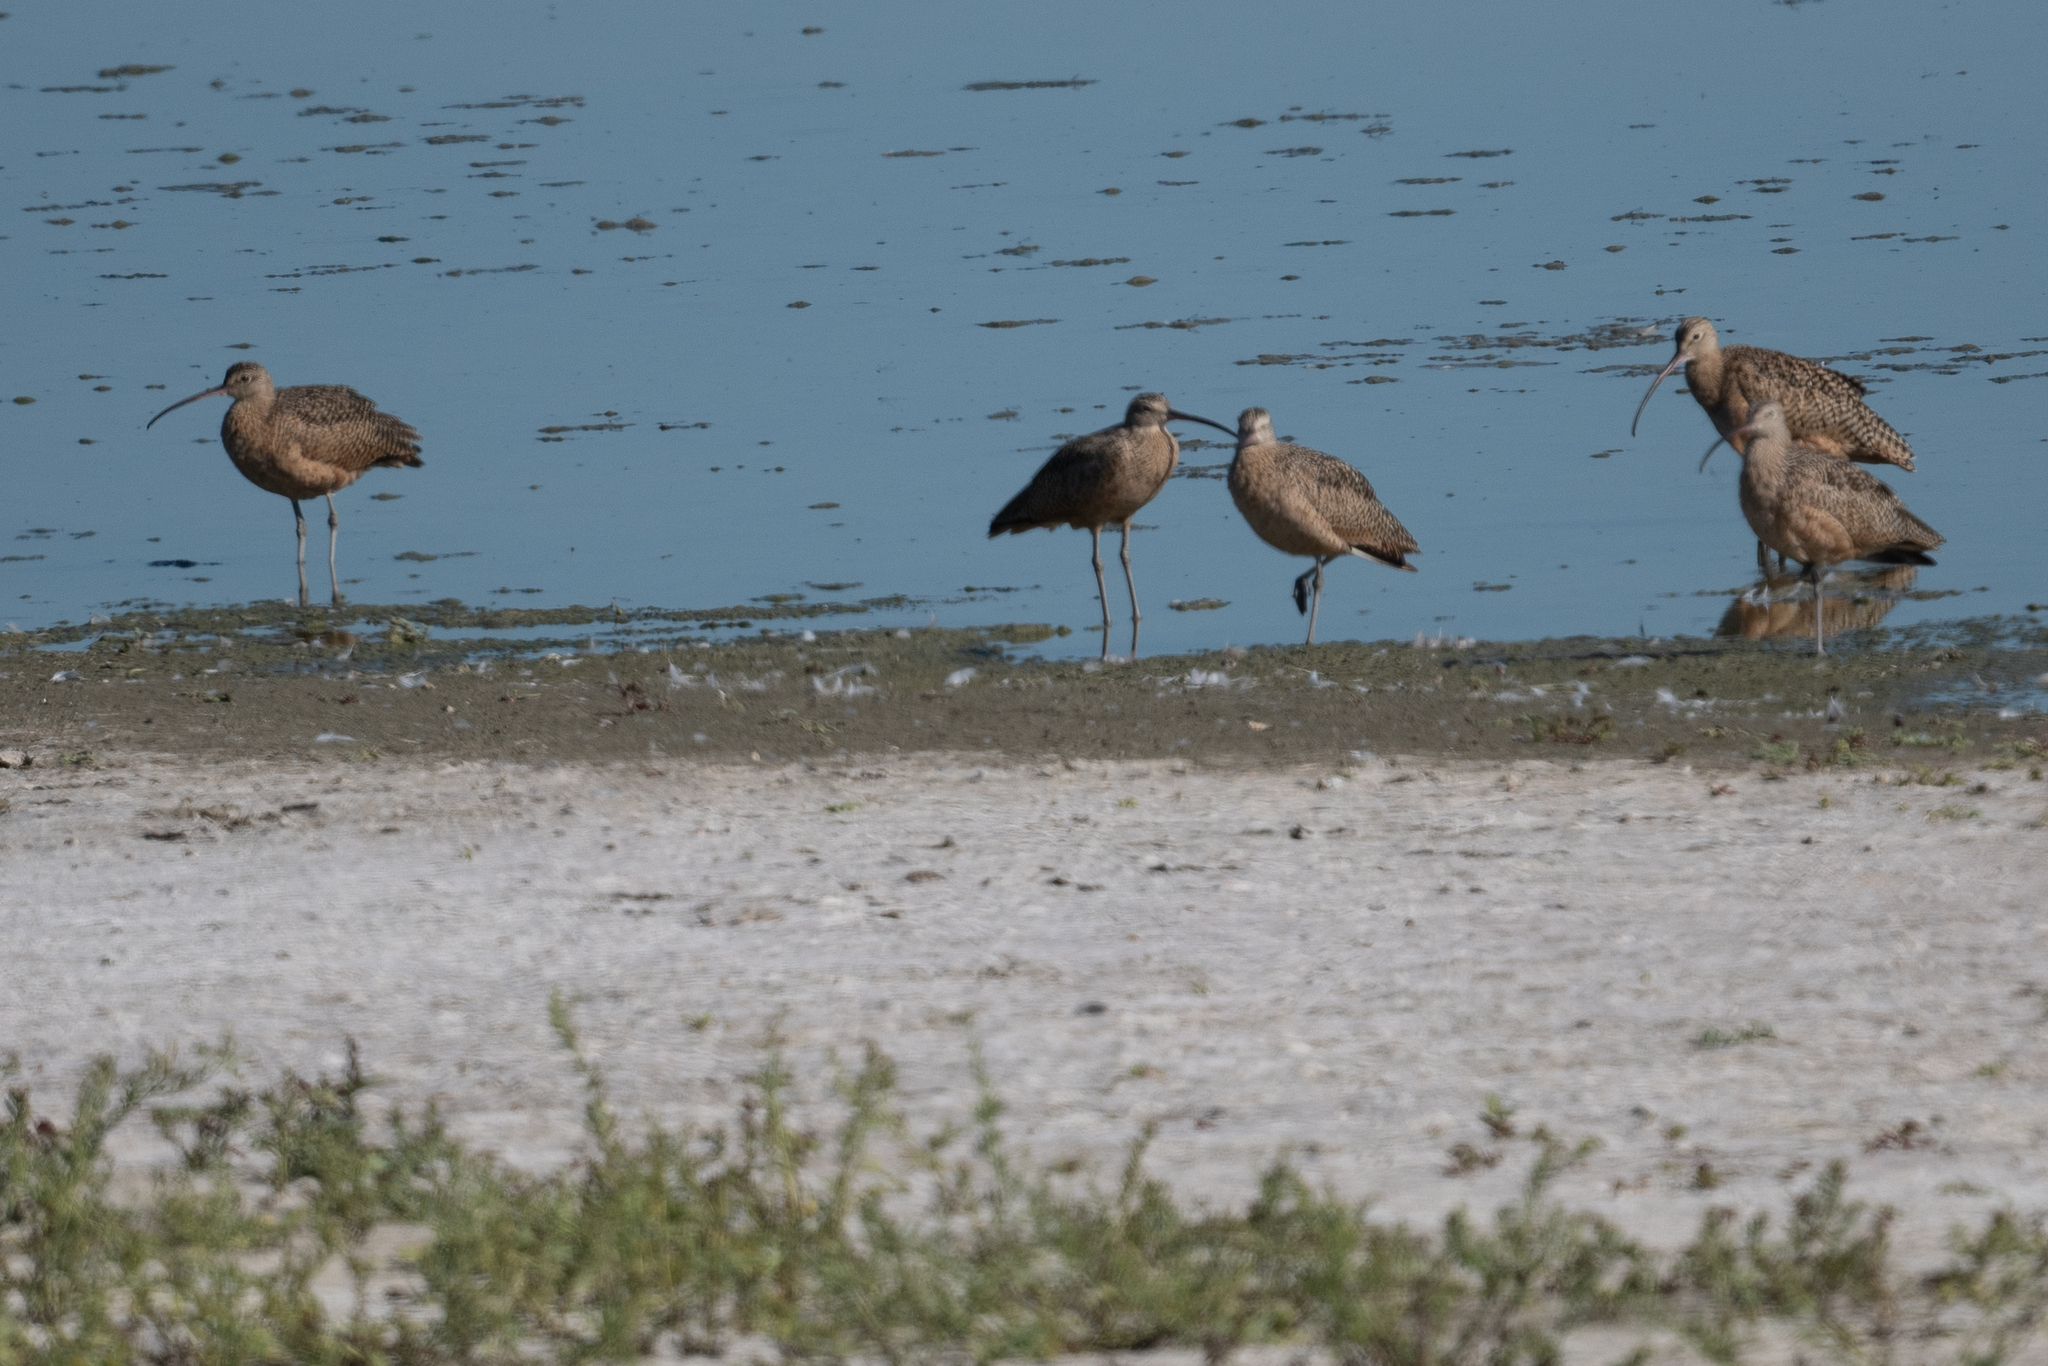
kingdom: Animalia
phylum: Chordata
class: Aves
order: Charadriiformes
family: Scolopacidae
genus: Numenius
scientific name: Numenius americanus
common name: Long-billed curlew
